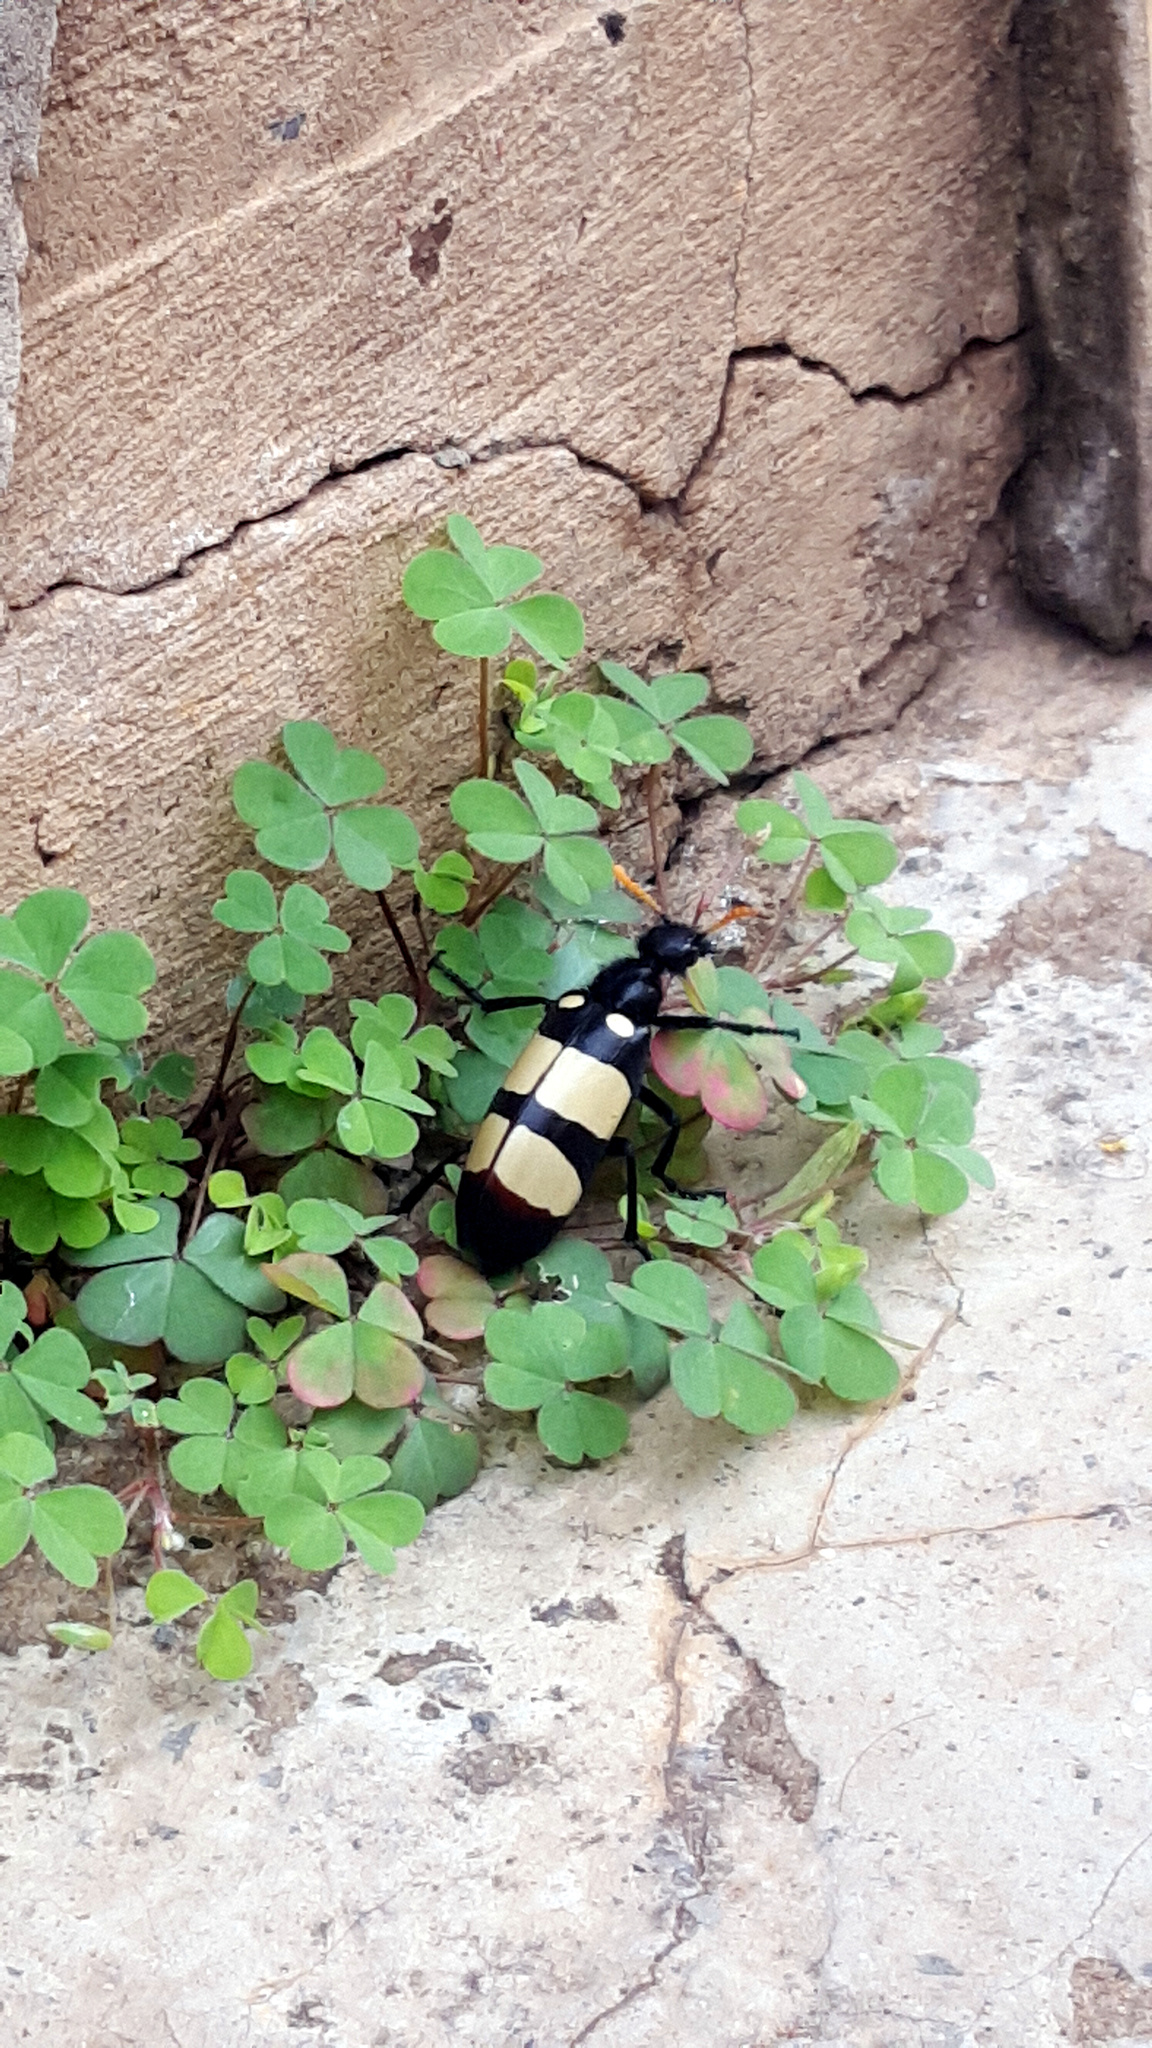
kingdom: Animalia
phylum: Arthropoda
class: Insecta
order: Coleoptera
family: Meloidae
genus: Hycleus
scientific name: Hycleus
